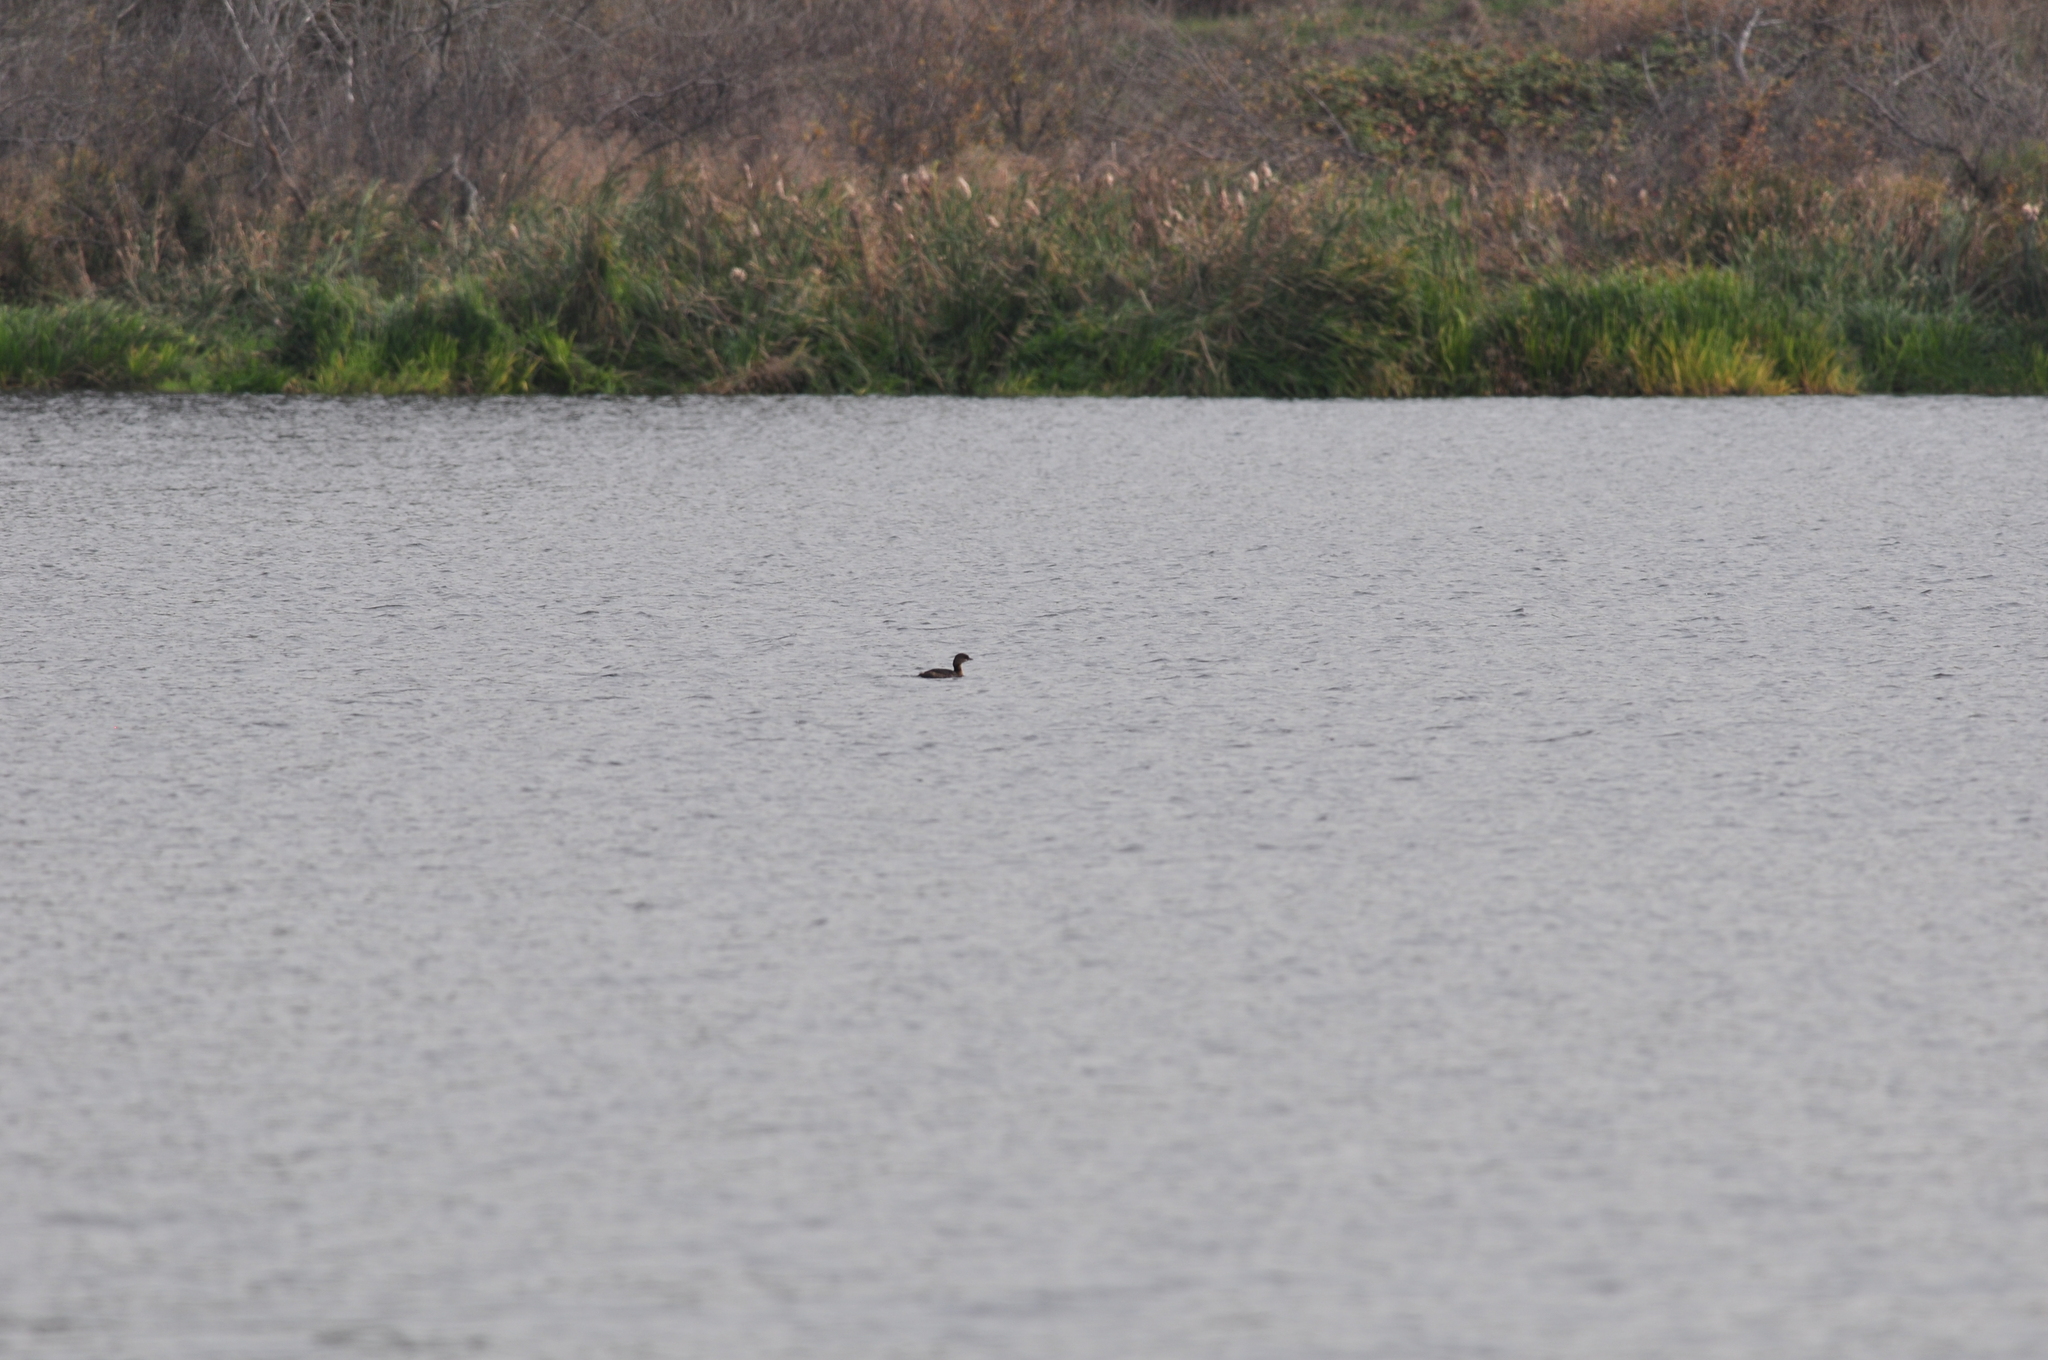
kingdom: Animalia
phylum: Chordata
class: Aves
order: Podicipediformes
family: Podicipedidae
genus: Podilymbus
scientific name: Podilymbus podiceps
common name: Pied-billed grebe
